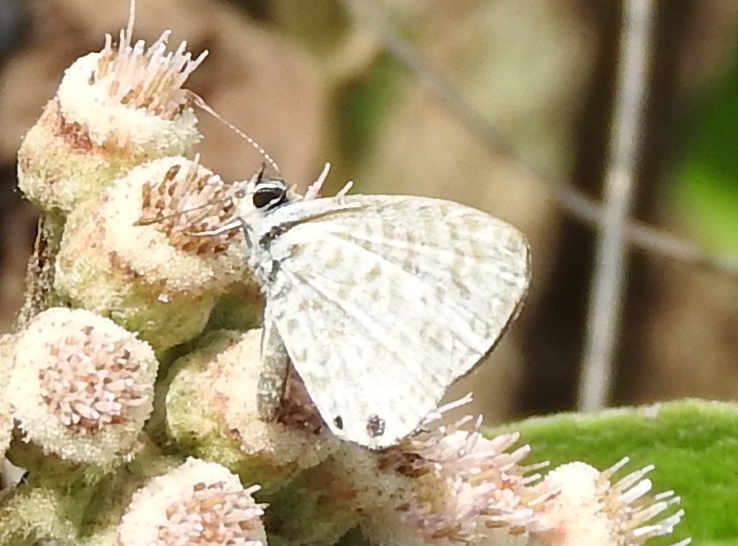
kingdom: Animalia
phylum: Arthropoda
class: Insecta
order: Lepidoptera
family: Lycaenidae
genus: Leptotes
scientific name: Leptotes
